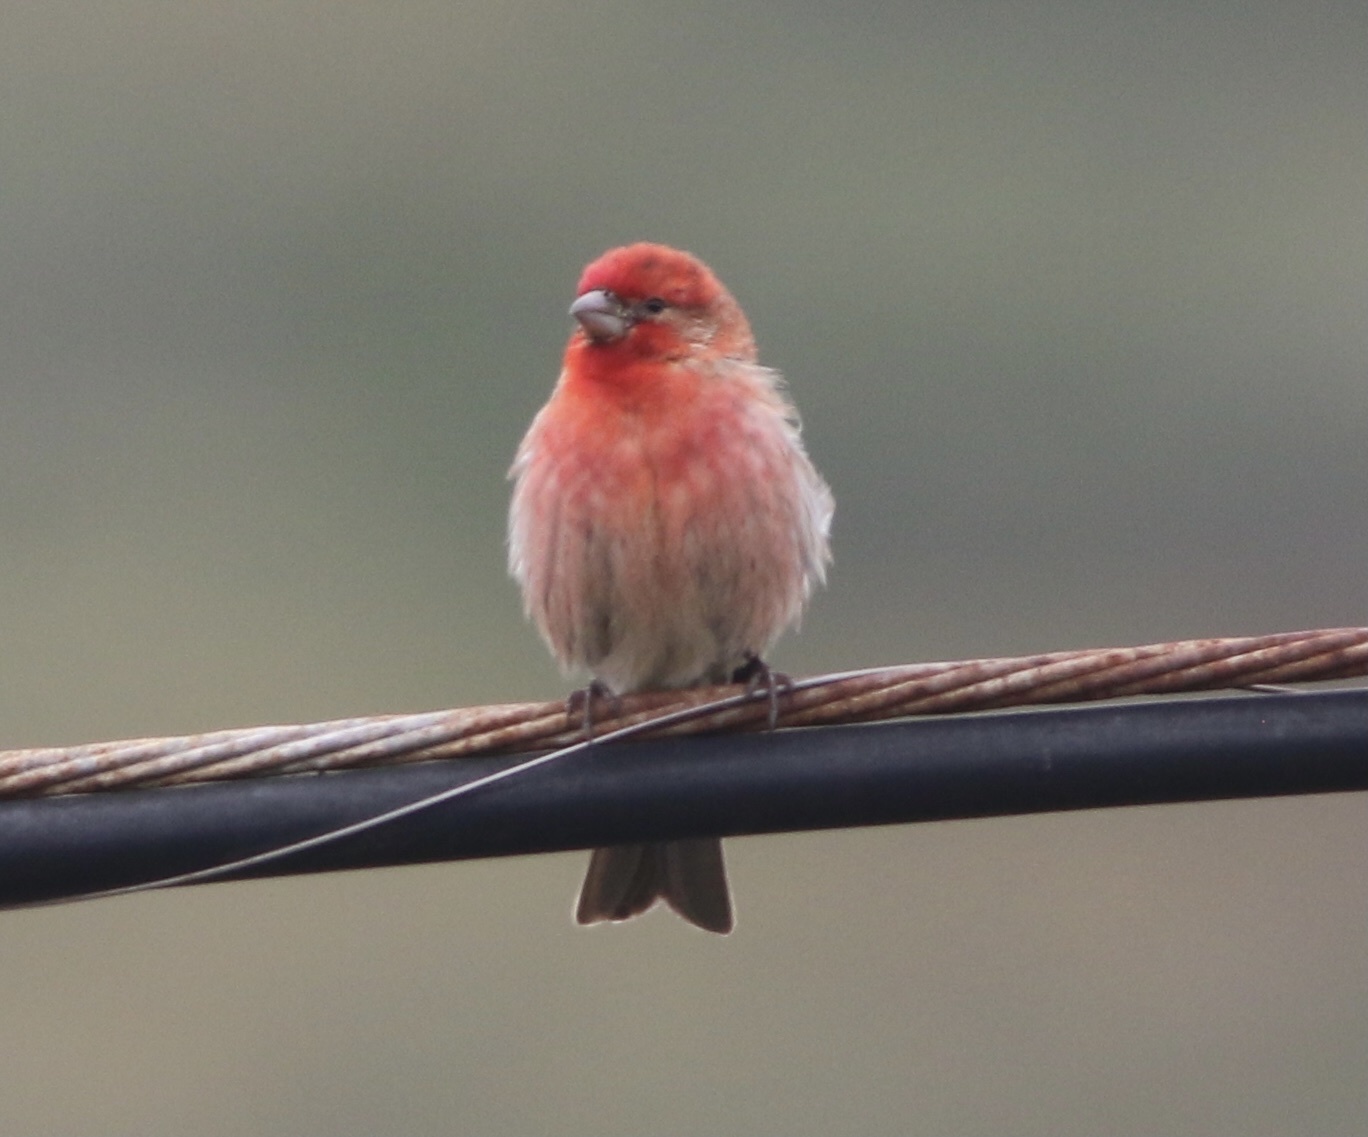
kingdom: Animalia
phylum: Chordata
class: Aves
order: Passeriformes
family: Fringillidae
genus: Haemorhous
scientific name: Haemorhous mexicanus
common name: House finch
